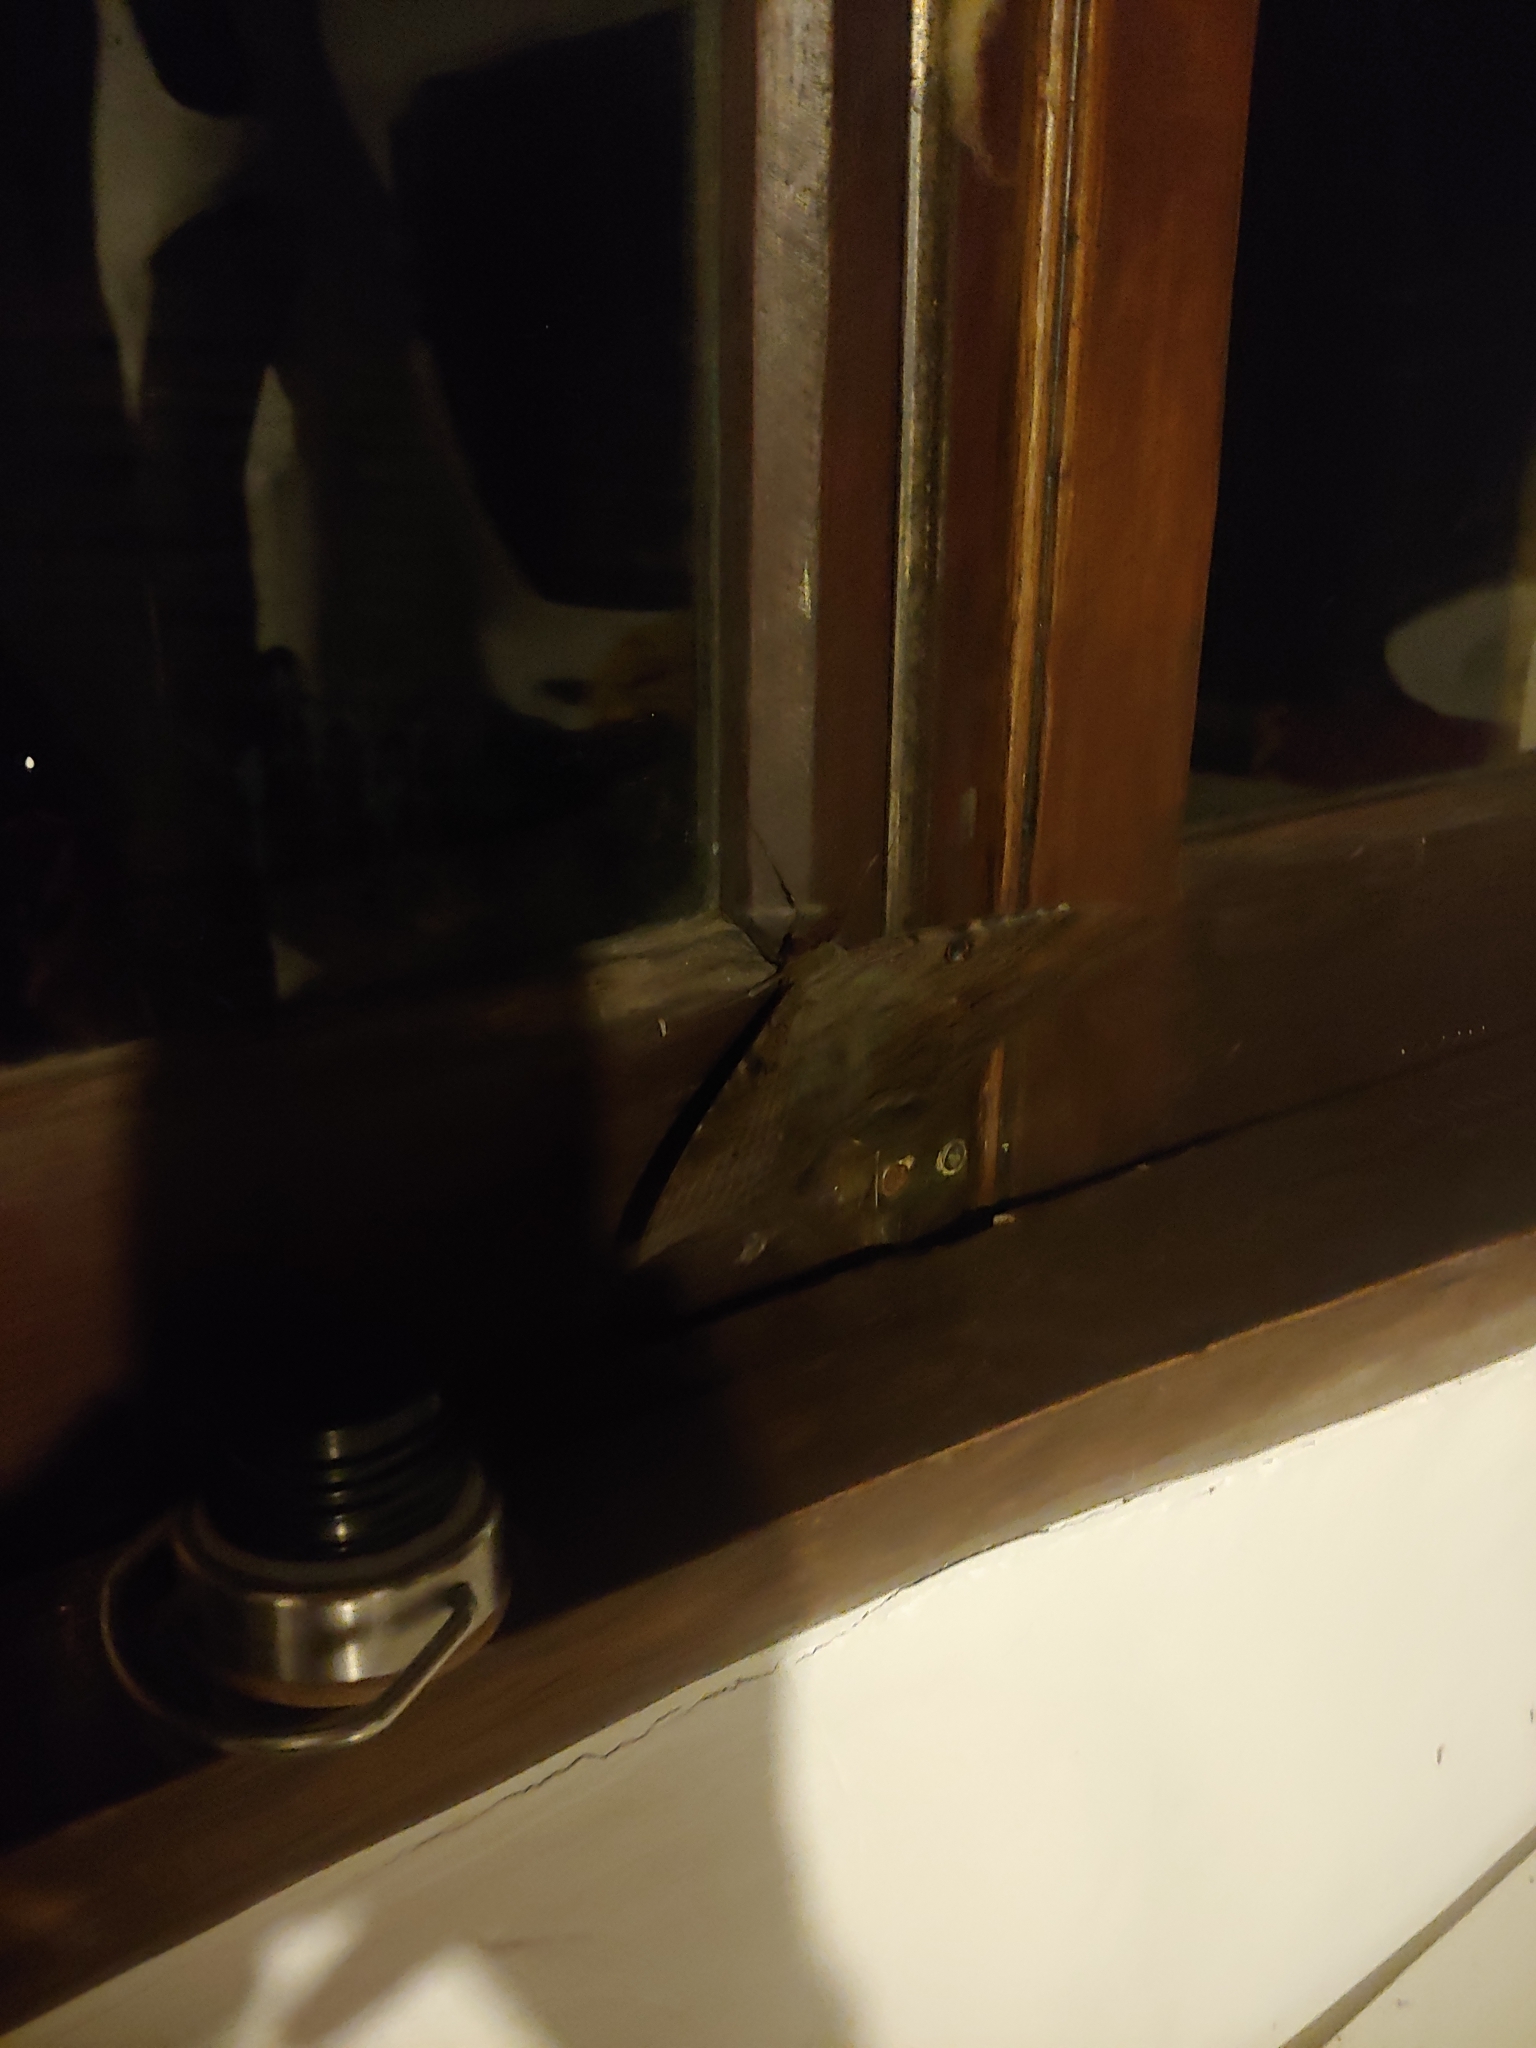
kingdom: Animalia
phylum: Arthropoda
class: Insecta
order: Lepidoptera
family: Erebidae
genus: Ascalapha
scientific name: Ascalapha odorata
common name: Black witch
